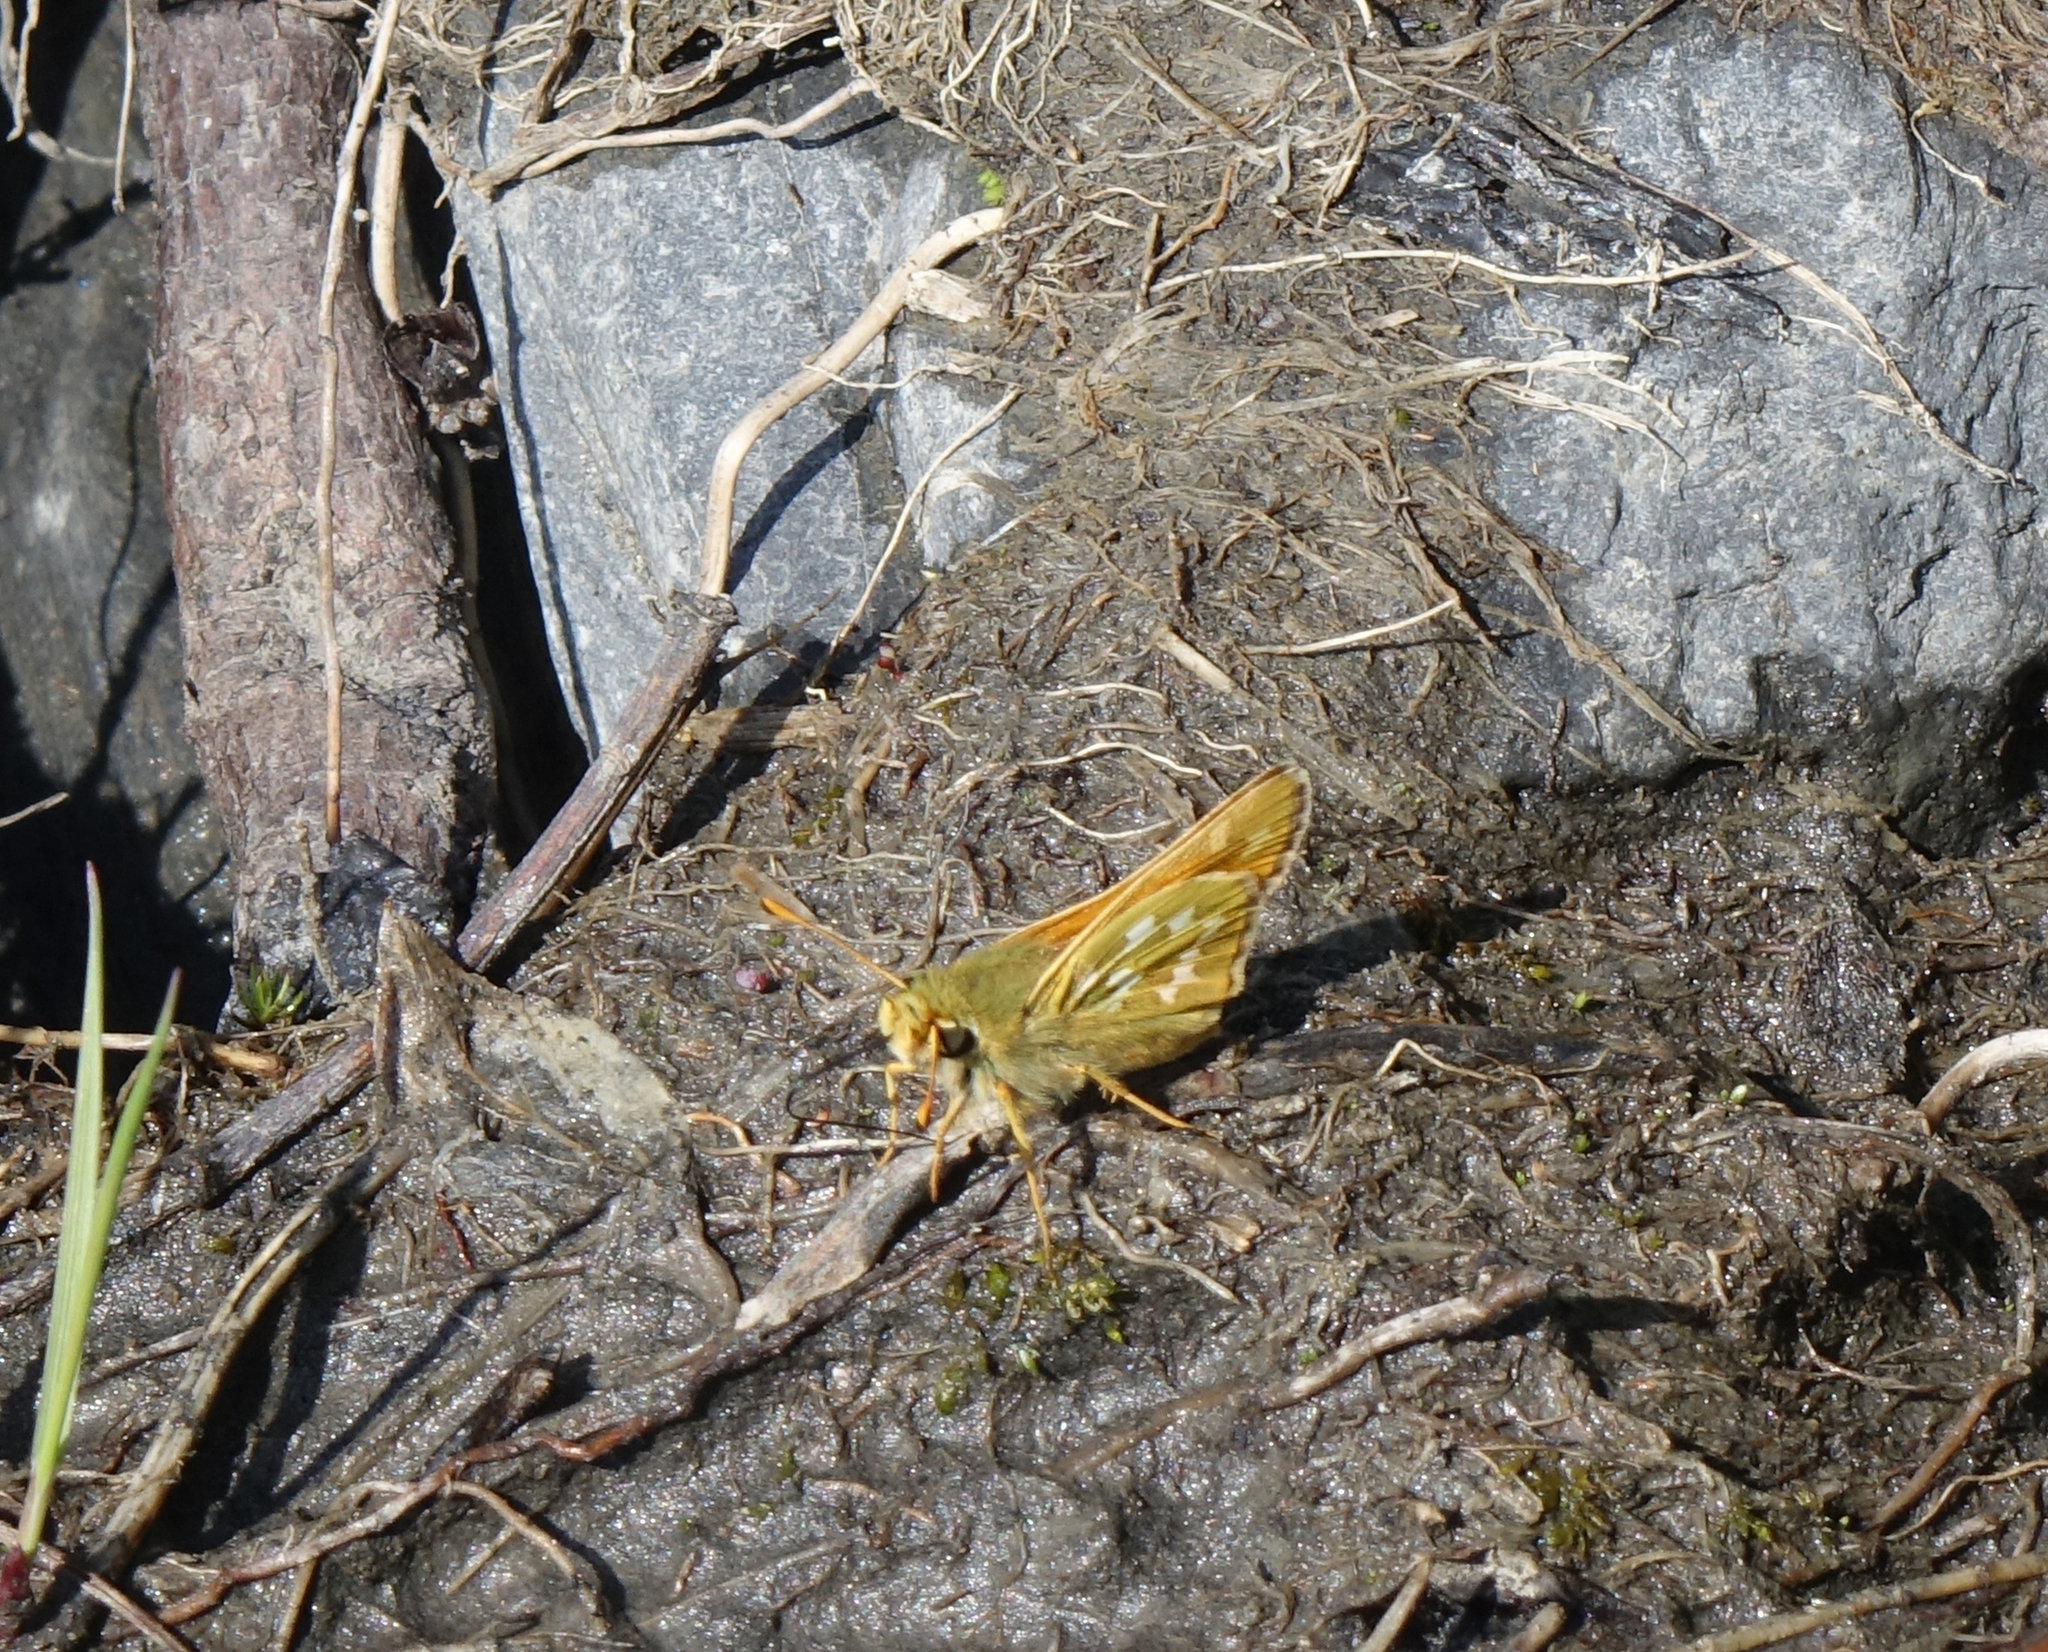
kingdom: Animalia
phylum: Arthropoda
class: Insecta
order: Lepidoptera
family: Hesperiidae
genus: Hesperia
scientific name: Hesperia comma
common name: Common branded skipper
